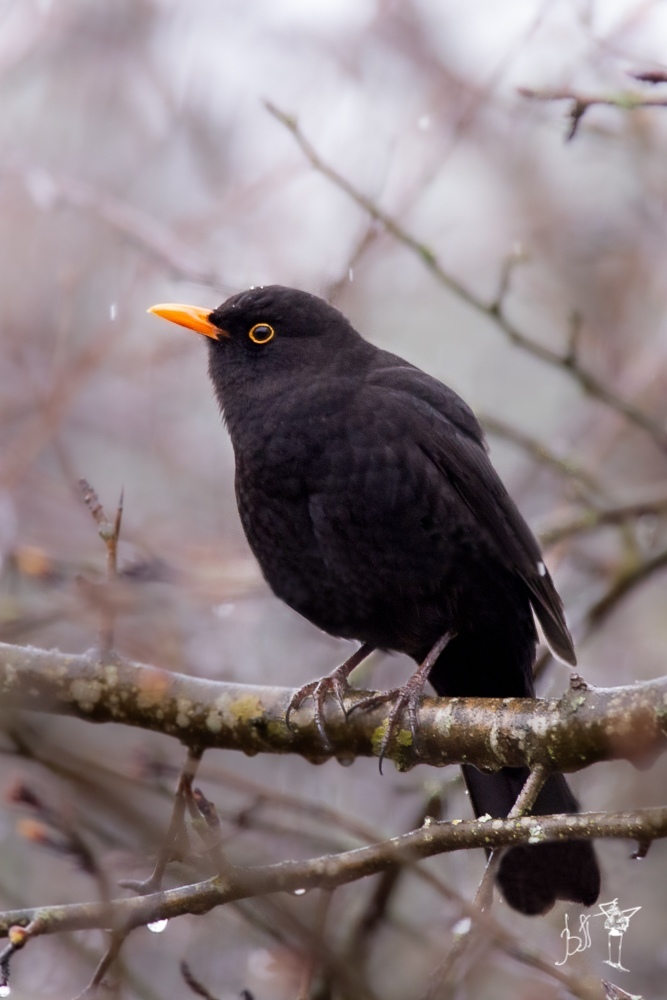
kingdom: Animalia
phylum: Chordata
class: Aves
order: Passeriformes
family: Turdidae
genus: Turdus
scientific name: Turdus merula
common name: Common blackbird
